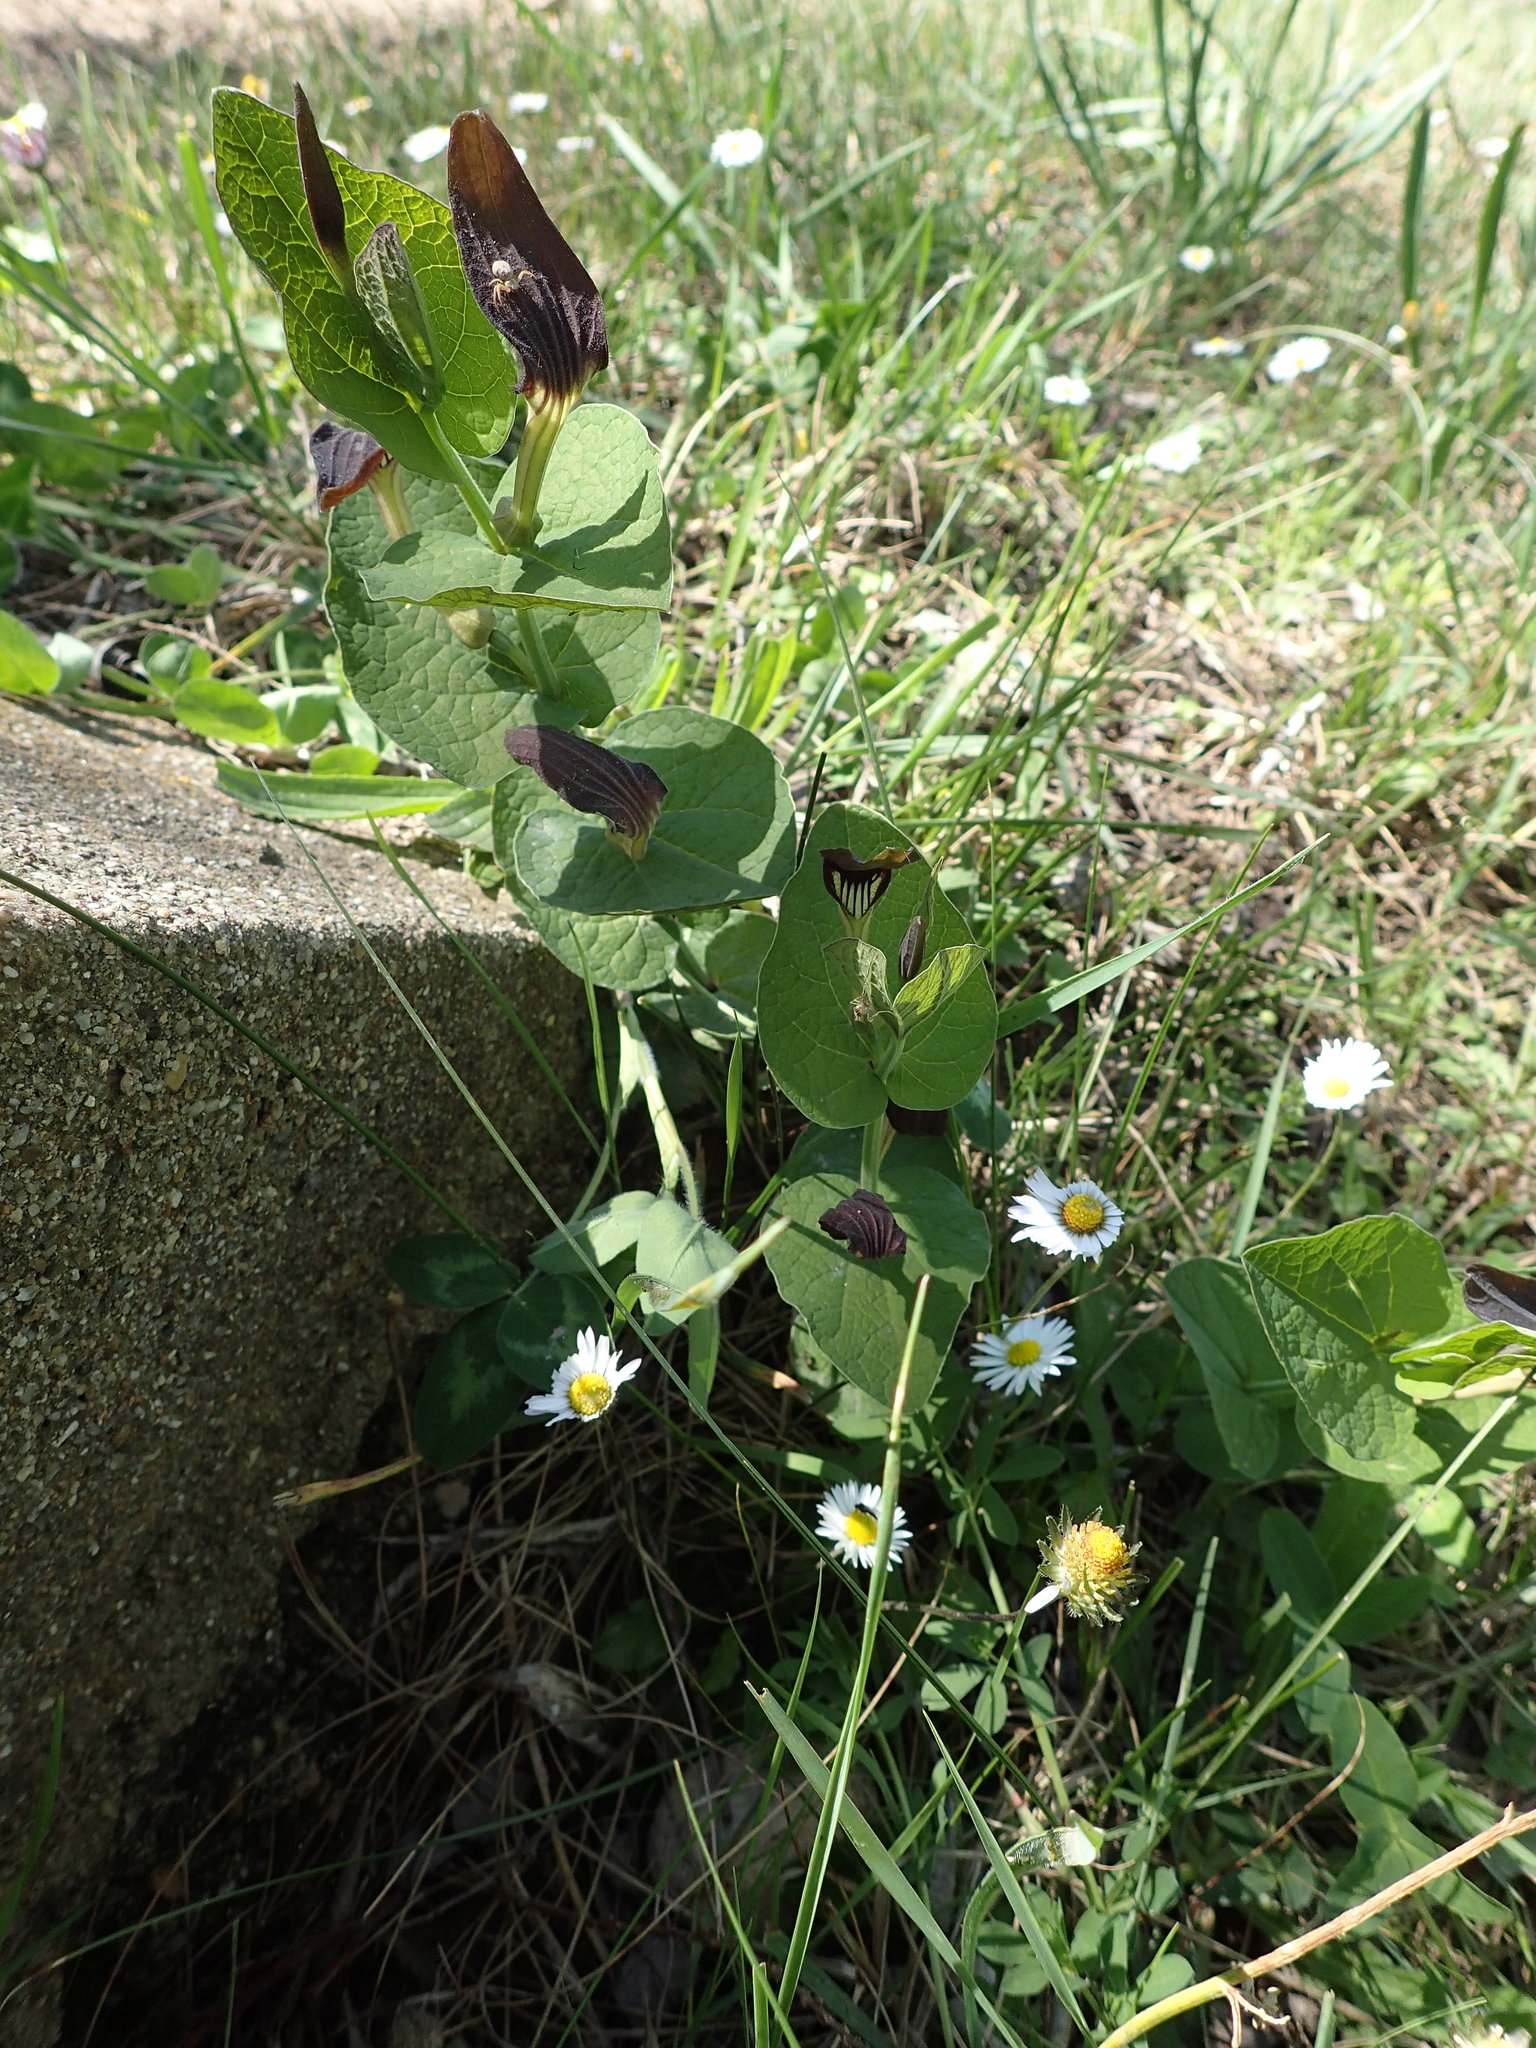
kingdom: Plantae
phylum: Tracheophyta
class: Magnoliopsida
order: Piperales
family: Aristolochiaceae
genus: Aristolochia
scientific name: Aristolochia rotunda
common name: Smearwort
